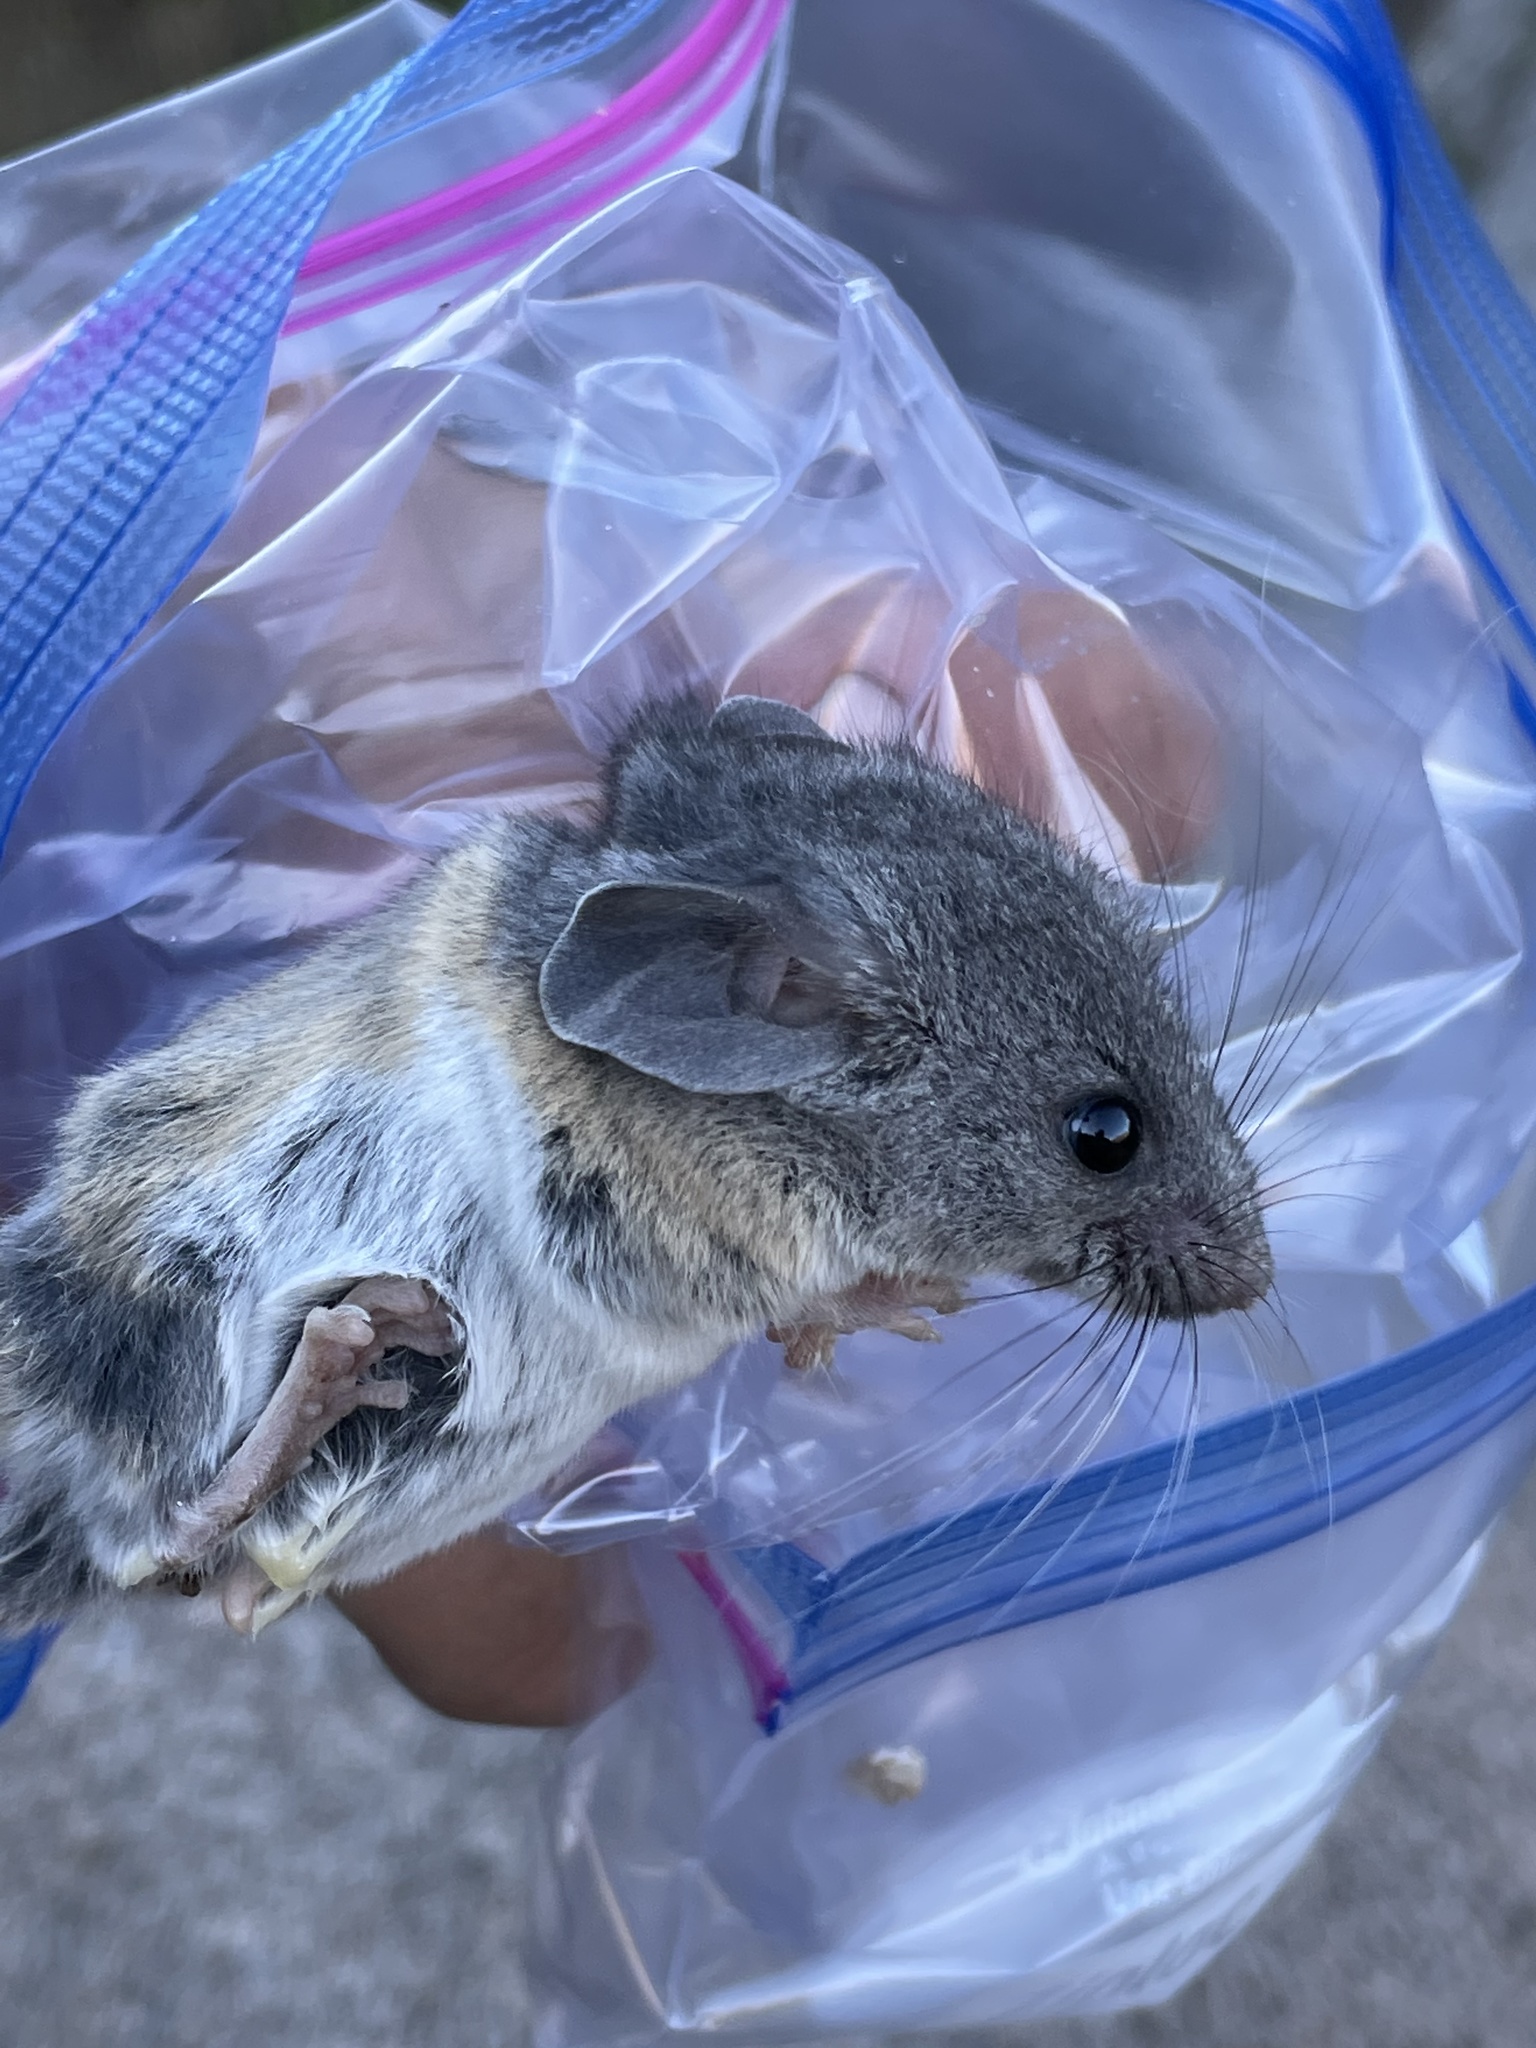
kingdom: Animalia
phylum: Chordata
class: Mammalia
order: Rodentia
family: Cricetidae
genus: Peromyscus
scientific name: Peromyscus boylii
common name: Brush mouse
